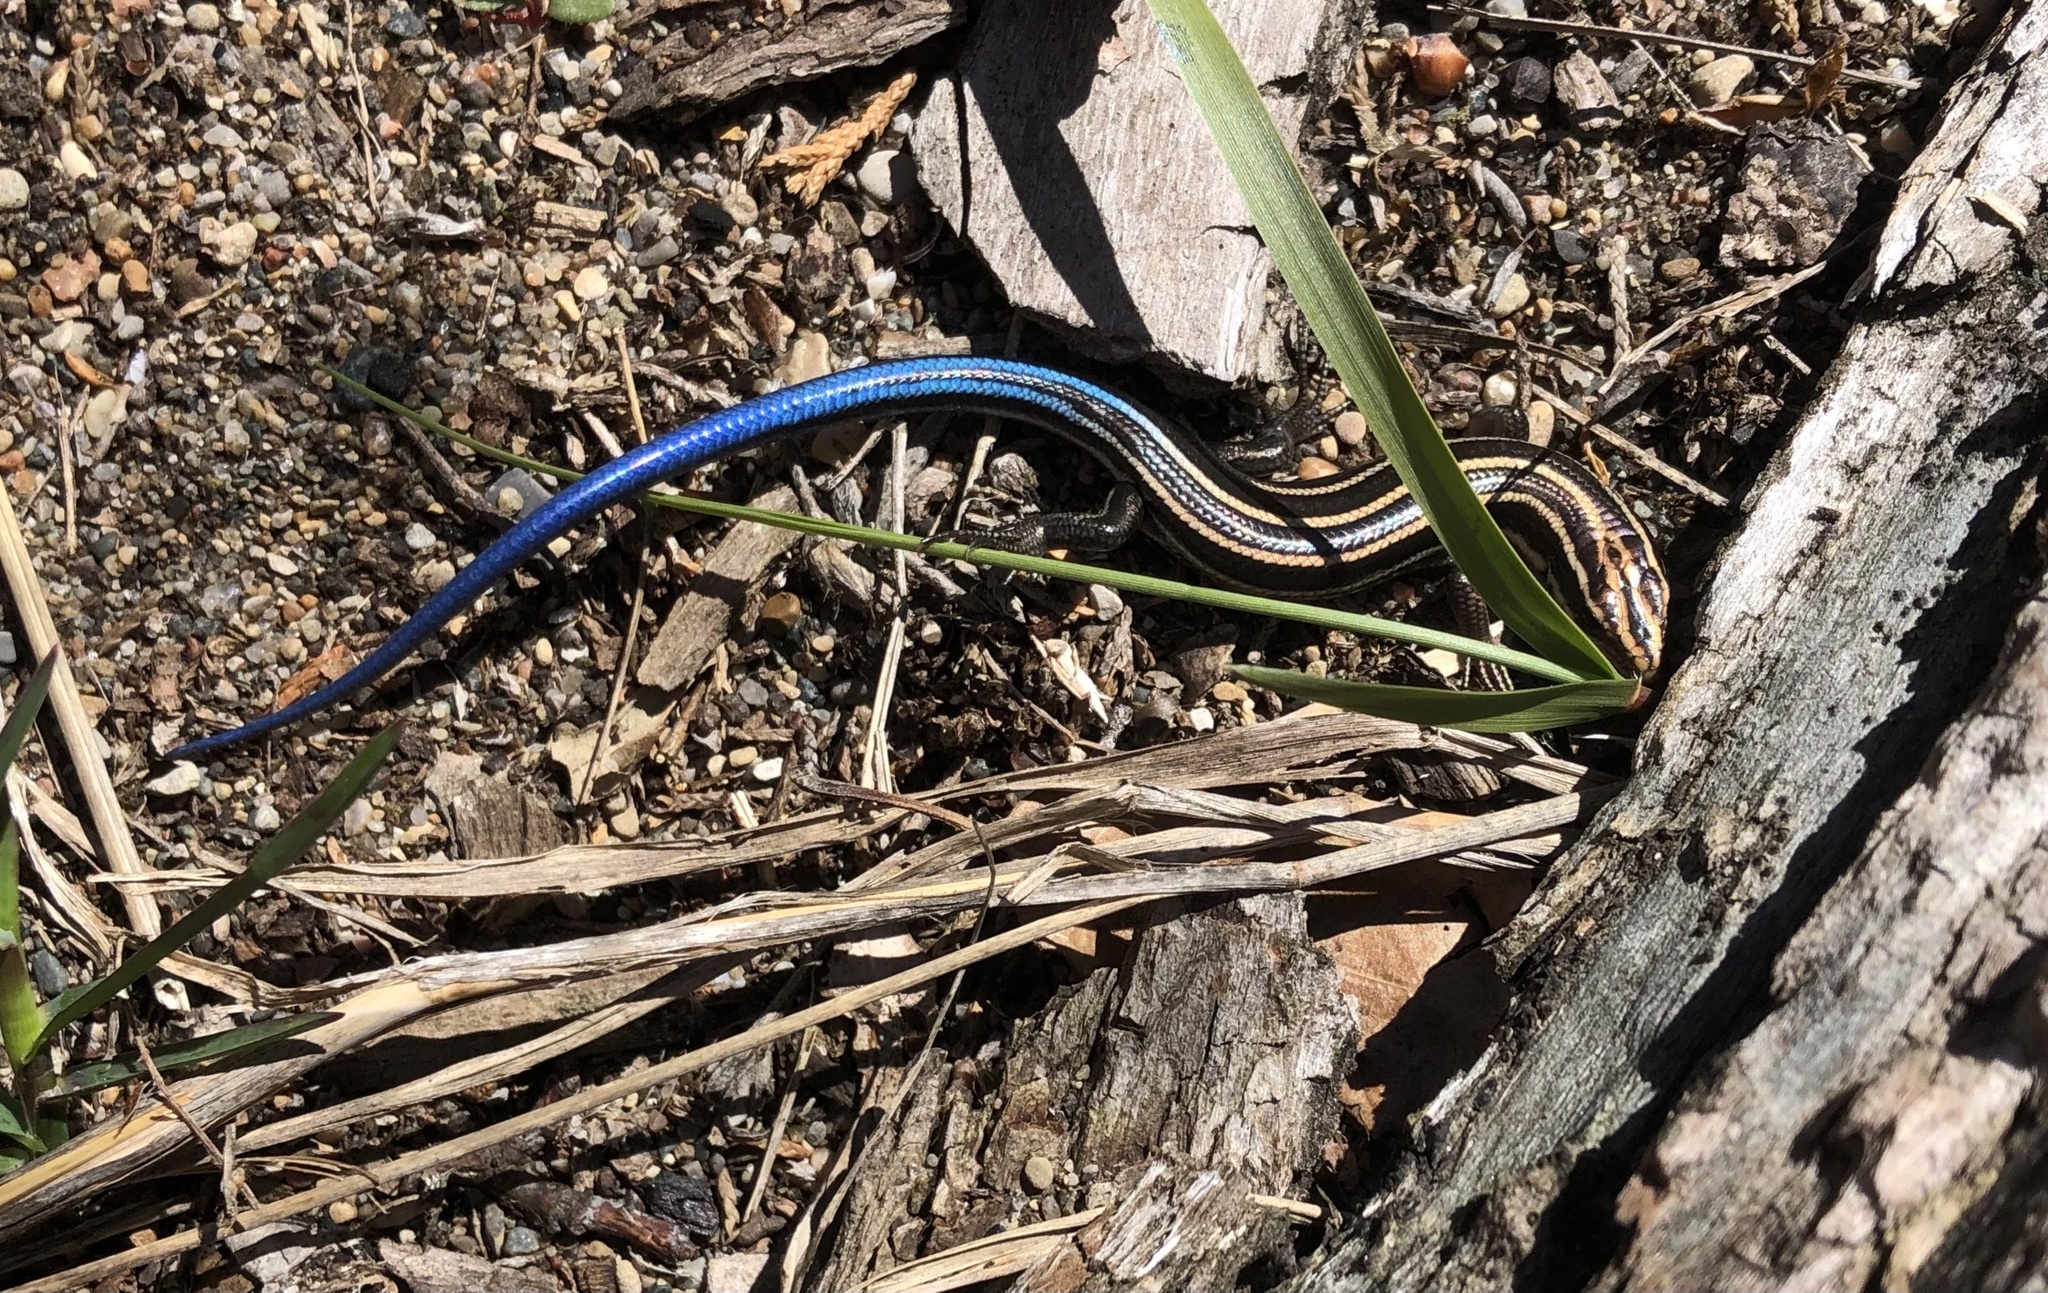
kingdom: Animalia
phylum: Chordata
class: Squamata
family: Scincidae
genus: Plestiodon
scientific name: Plestiodon fasciatus
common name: Five-lined skink
